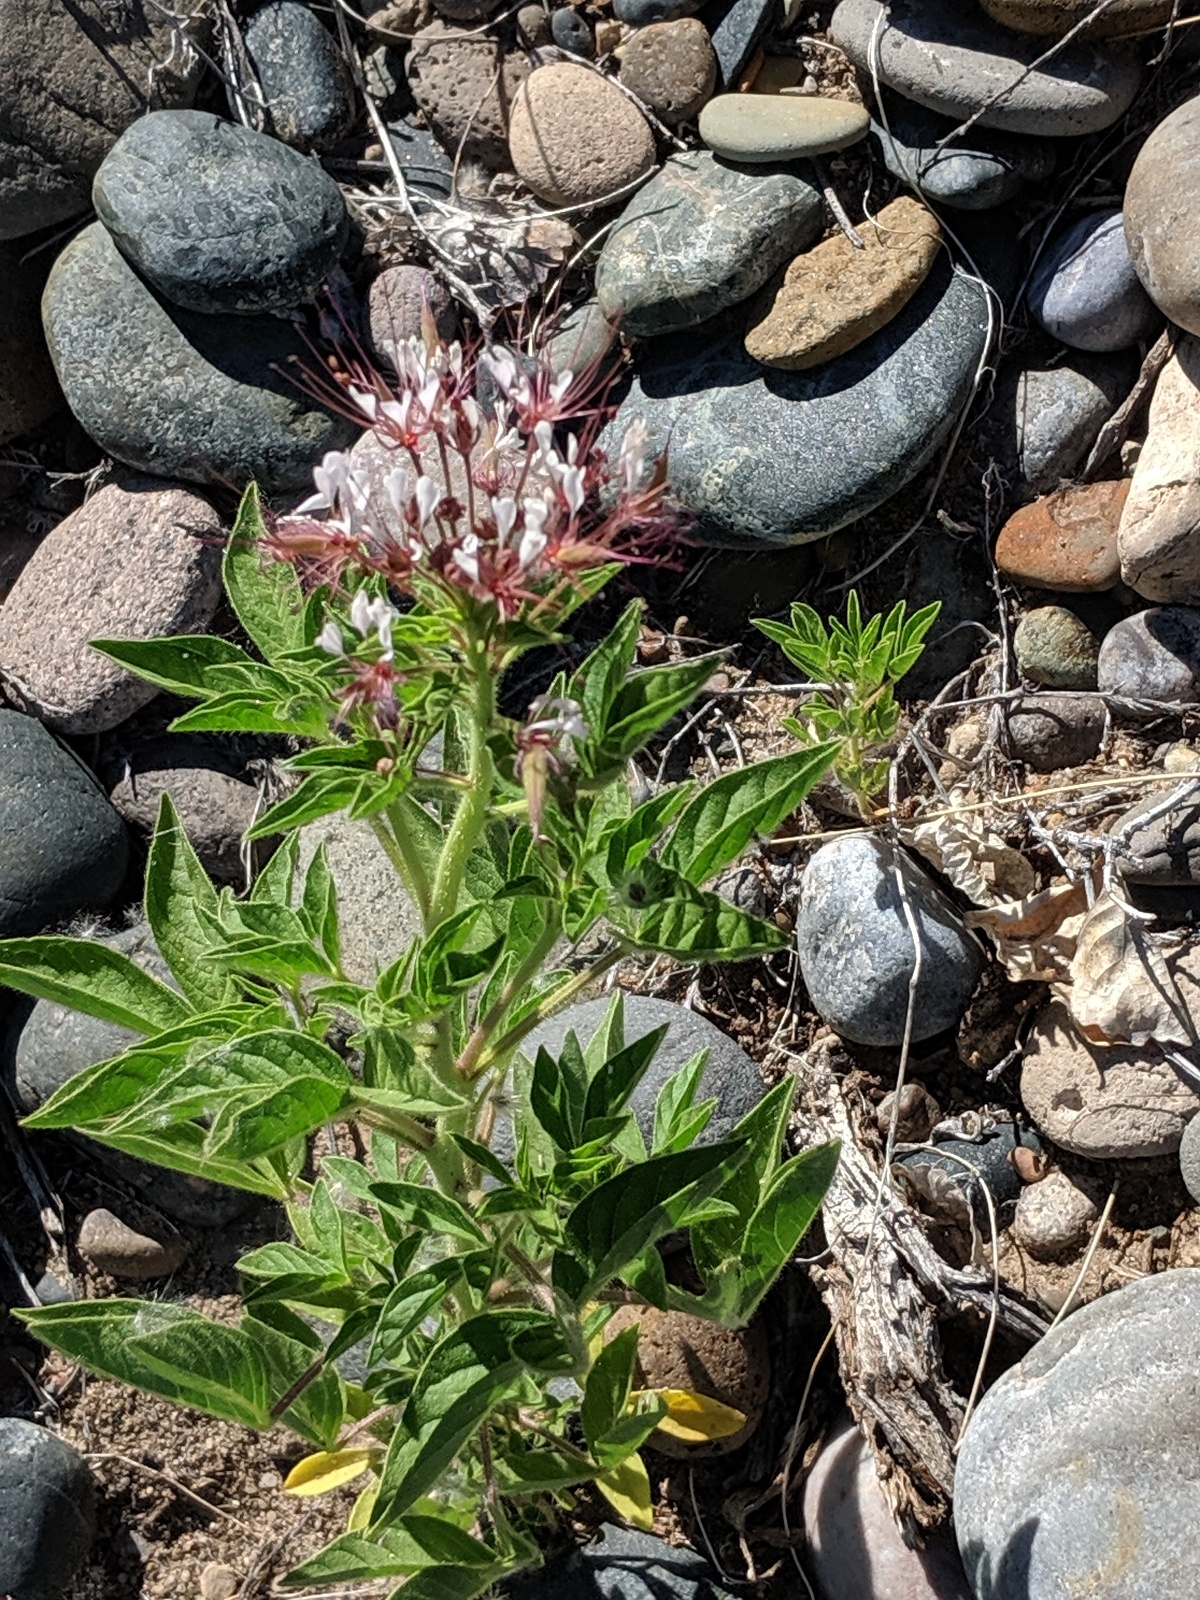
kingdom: Plantae
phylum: Tracheophyta
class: Magnoliopsida
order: Brassicales
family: Cleomaceae
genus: Polanisia
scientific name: Polanisia dodecandra
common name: Clammyweed
